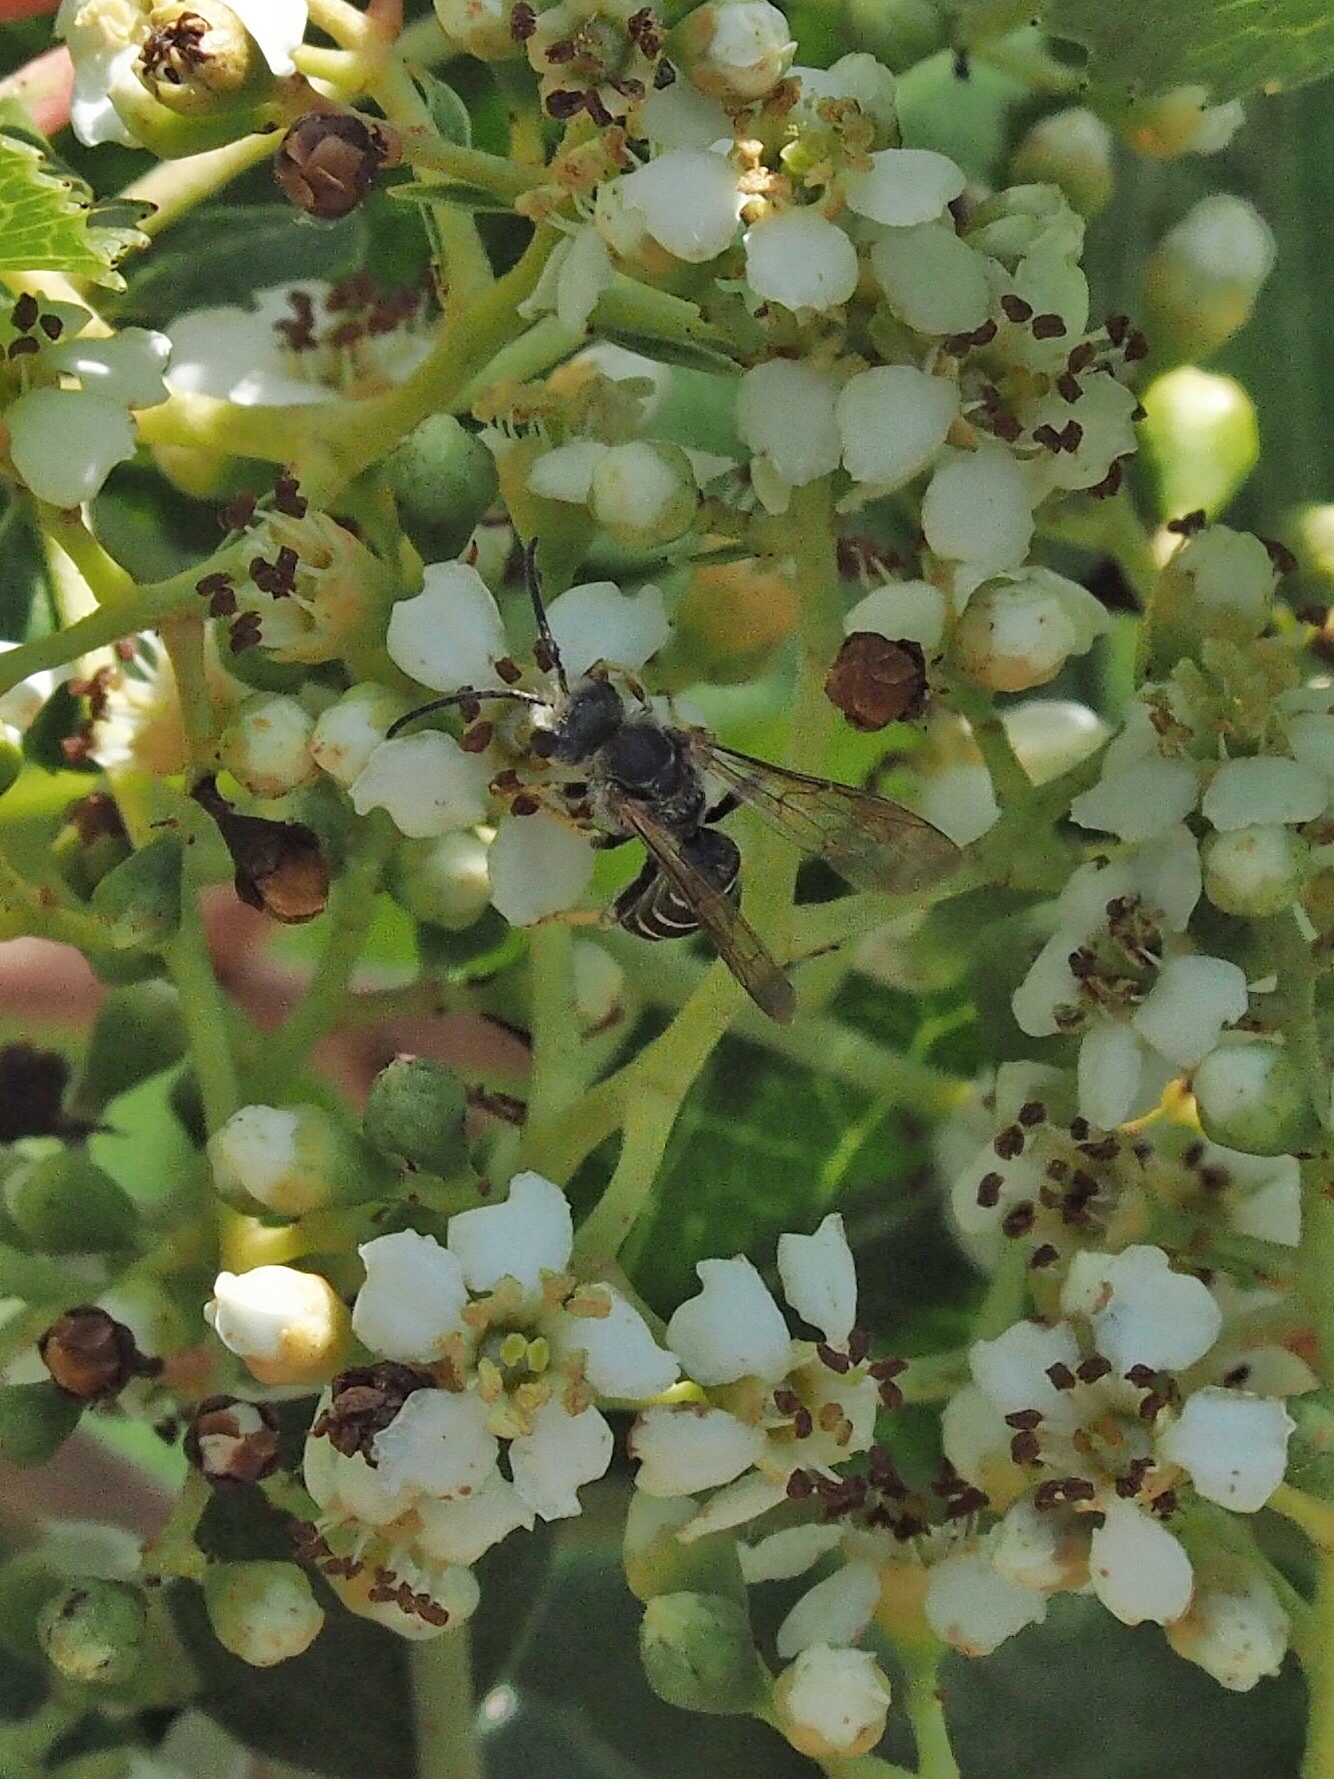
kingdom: Animalia
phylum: Arthropoda
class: Insecta
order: Hymenoptera
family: Halictidae
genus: Halictus
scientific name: Halictus farinosus
